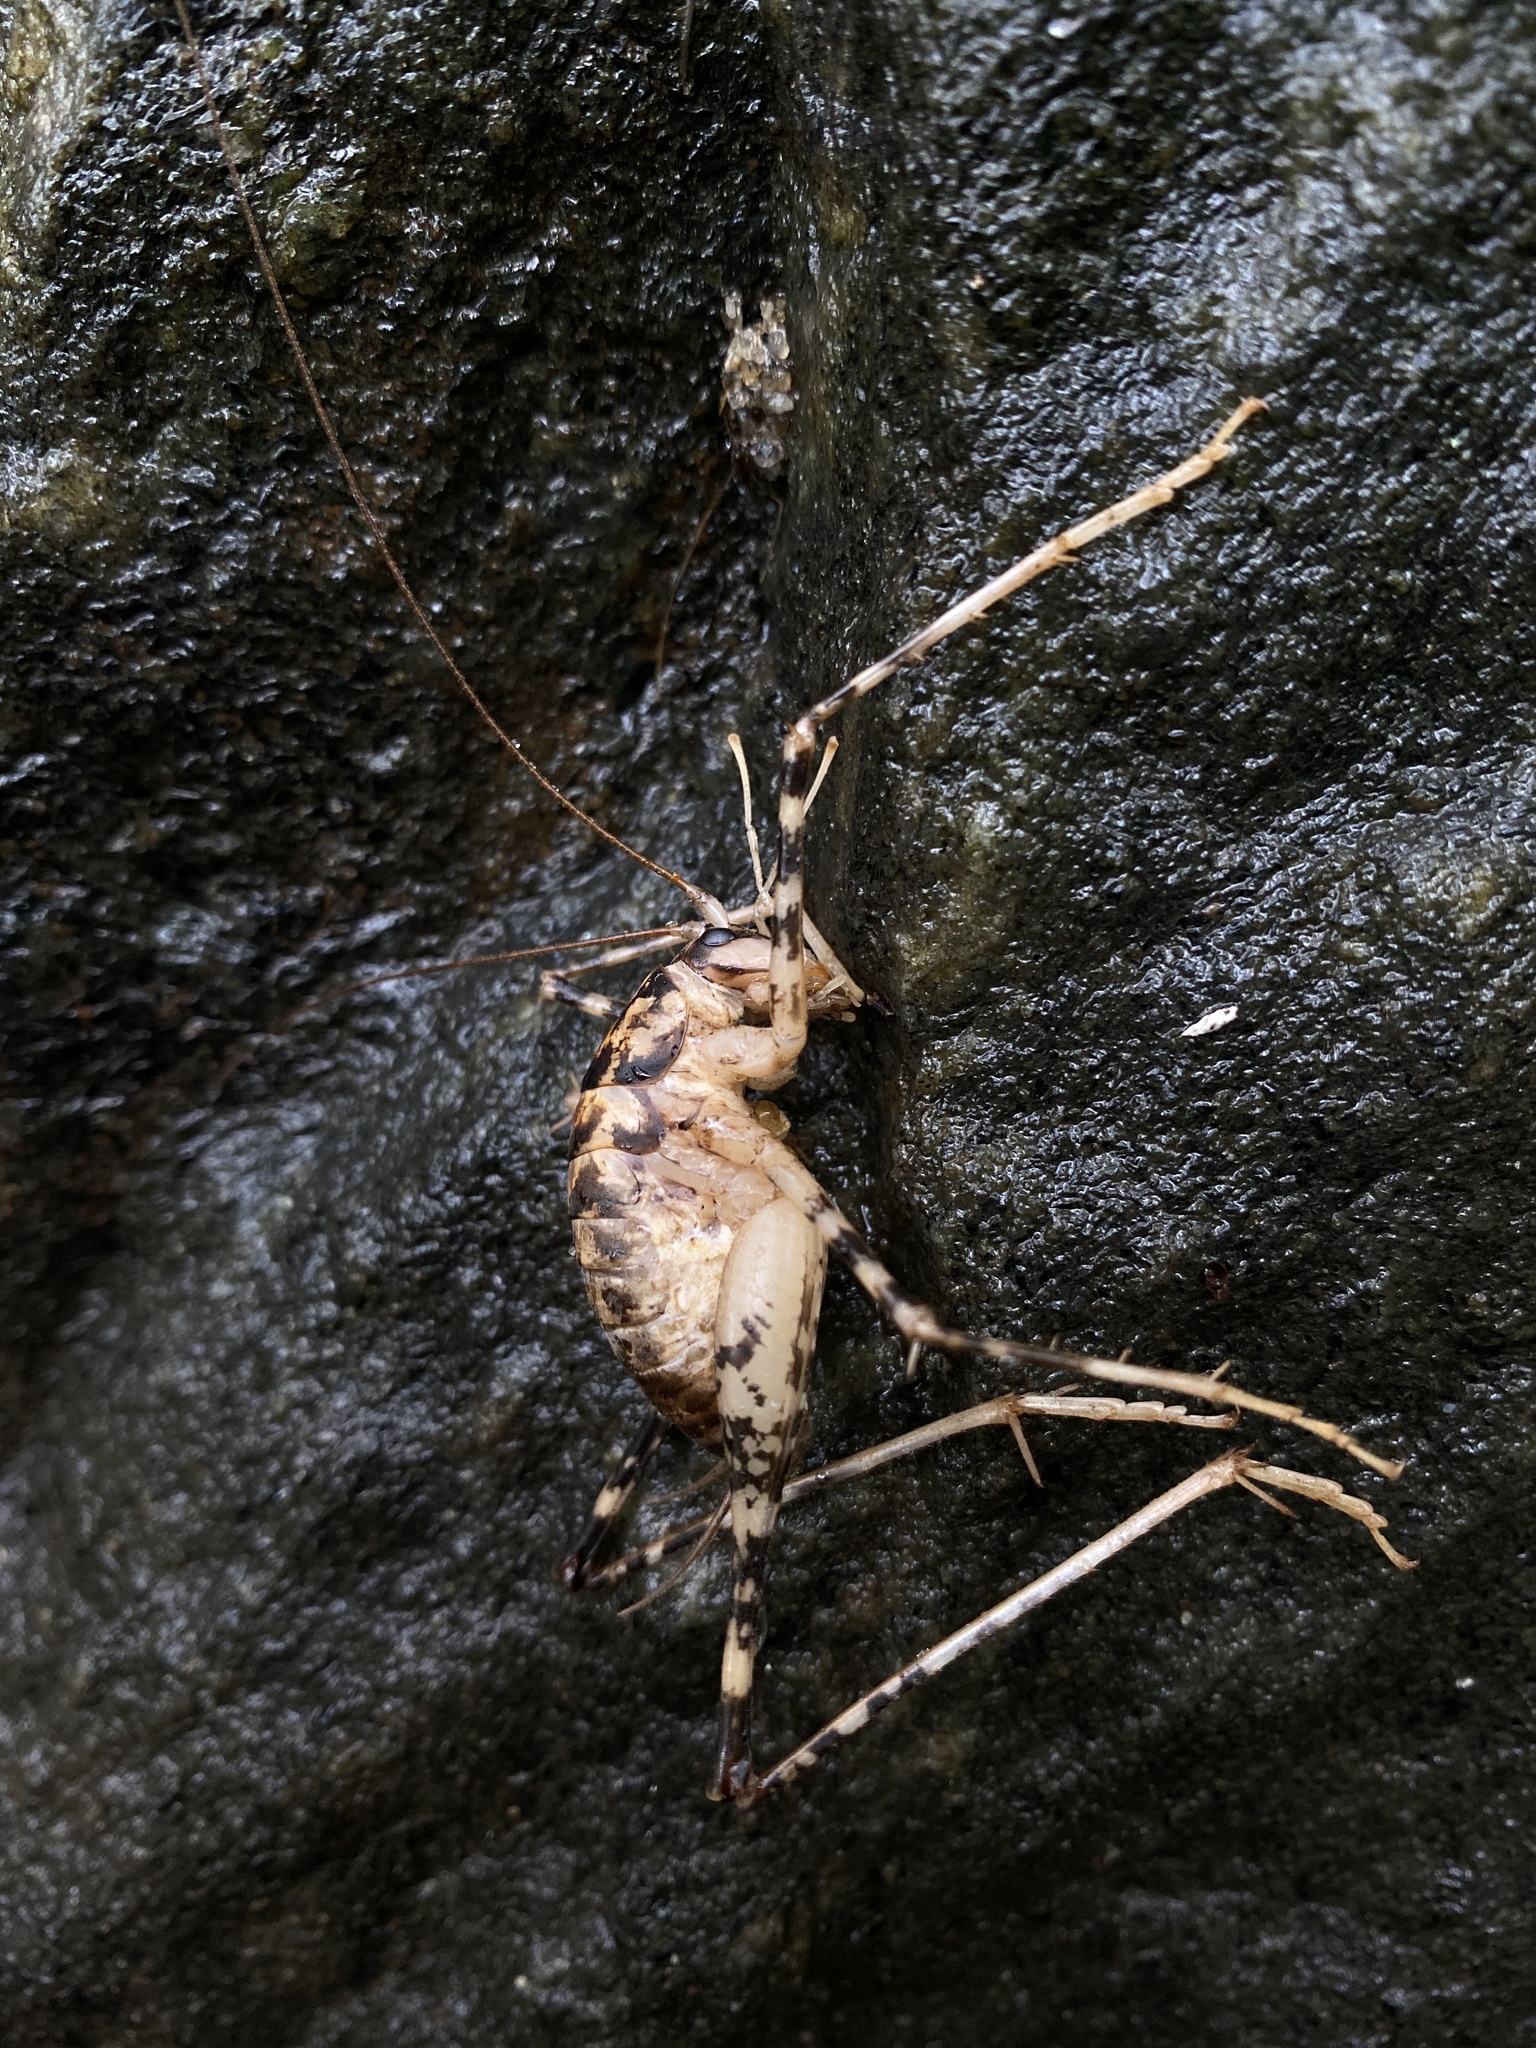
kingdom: Animalia
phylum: Arthropoda
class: Insecta
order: Orthoptera
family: Rhaphidophoridae
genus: Diestrammena
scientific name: Diestrammena japanica
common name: Japanese camel cricket
